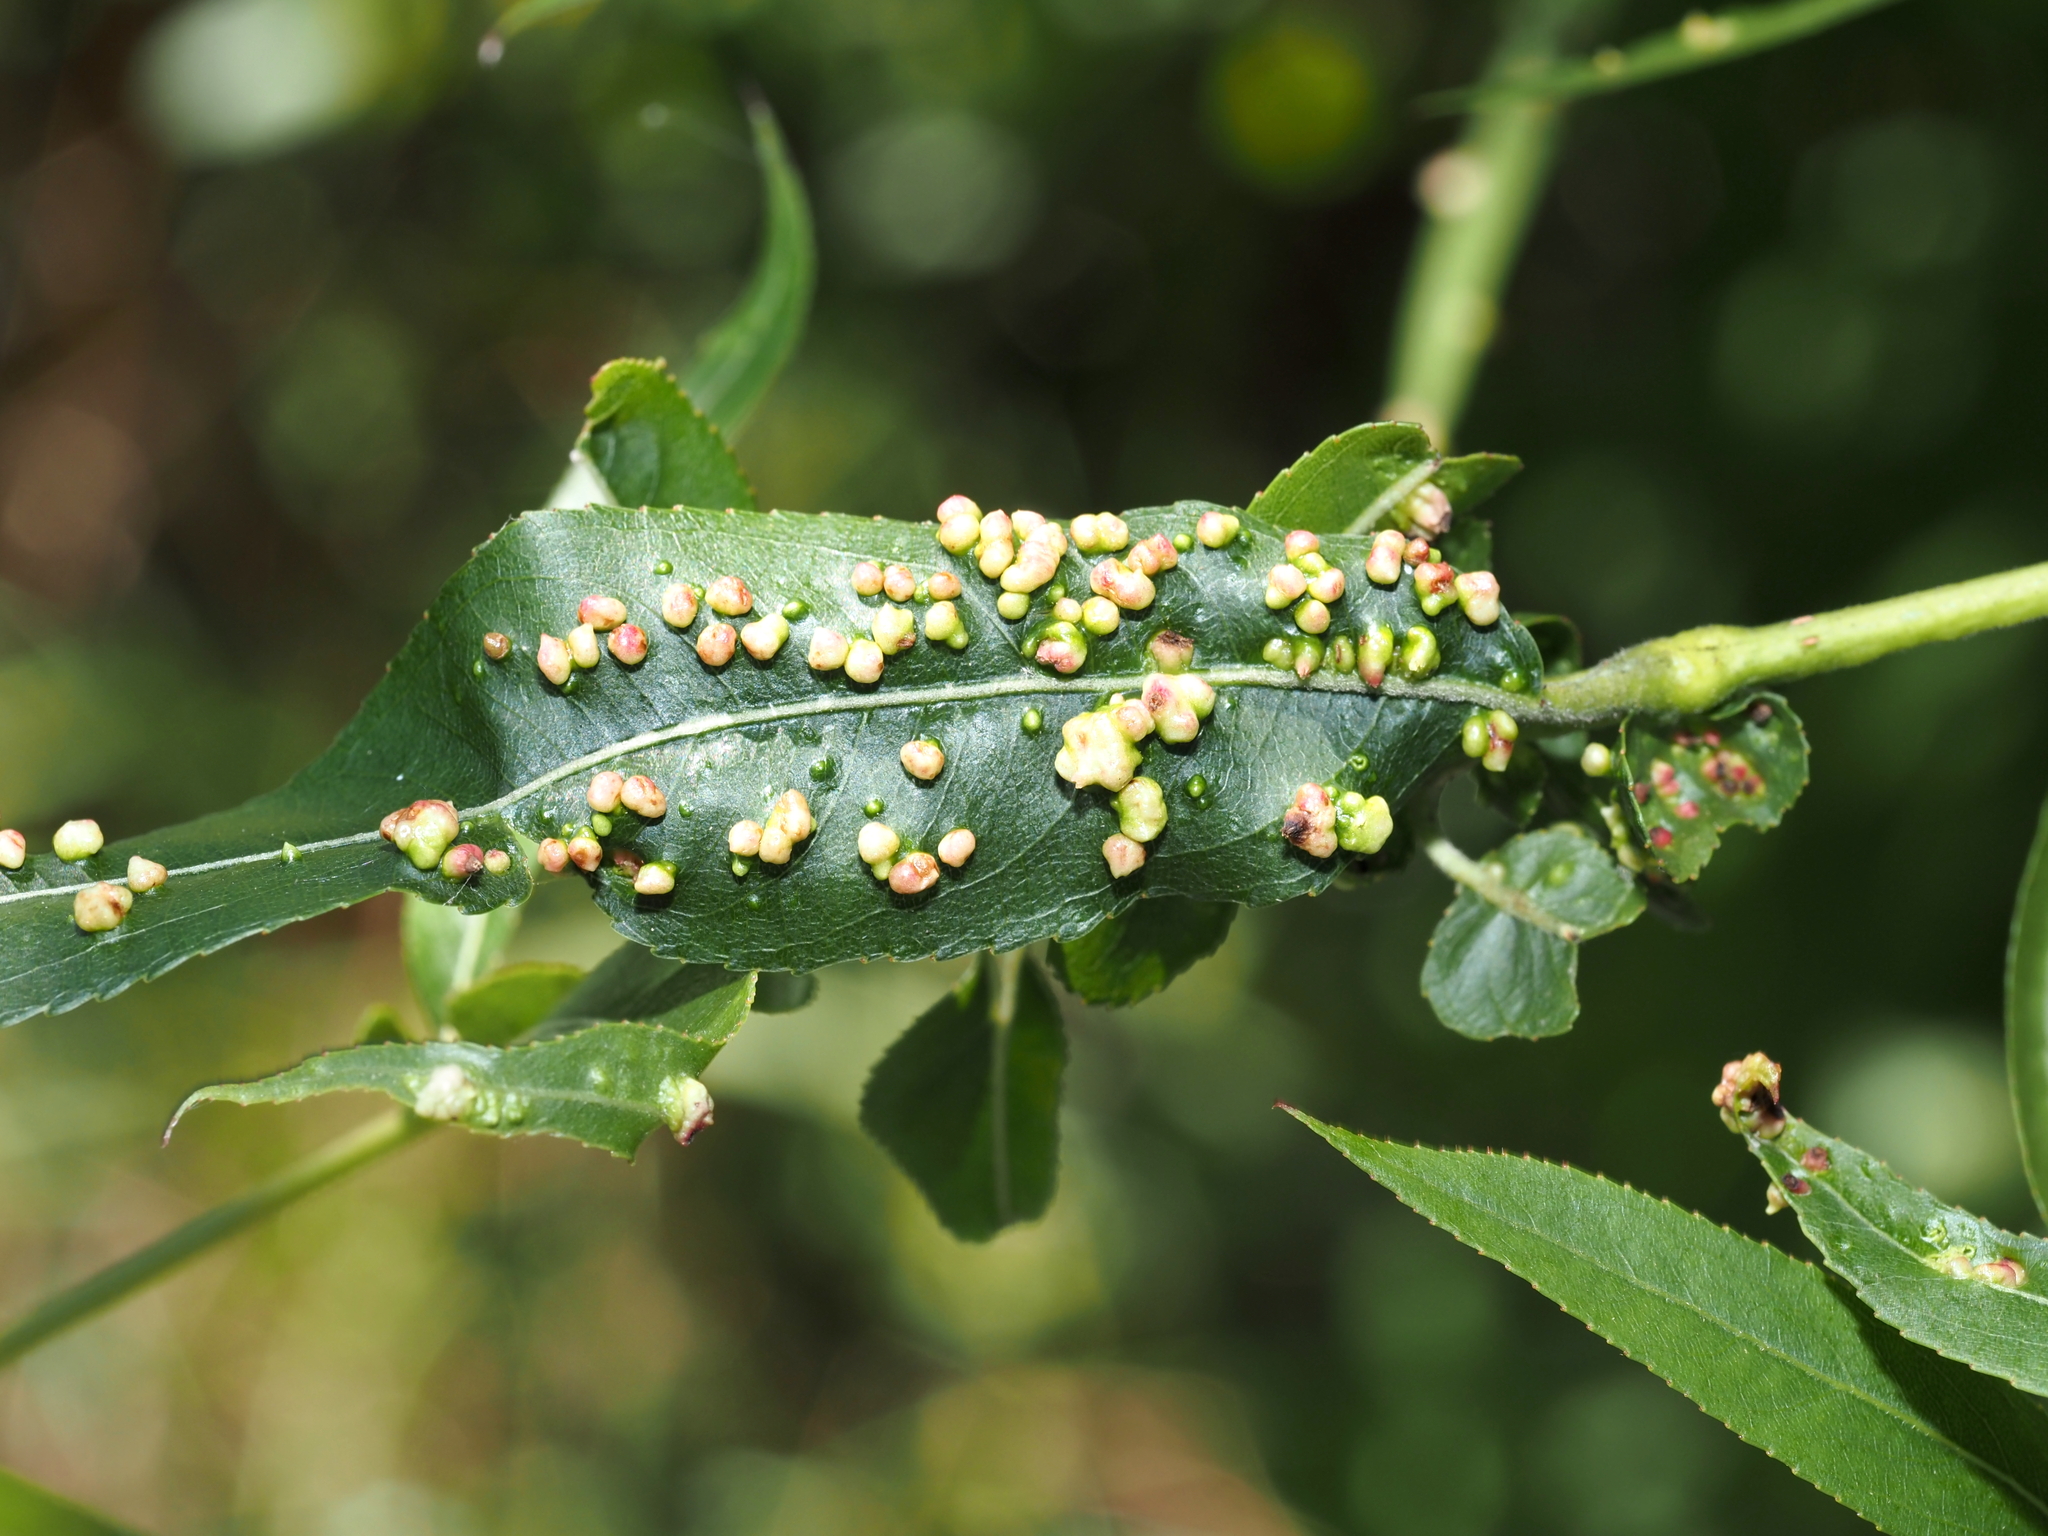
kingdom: Animalia
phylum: Arthropoda
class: Arachnida
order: Trombidiformes
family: Eriophyidae
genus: Aculus
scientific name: Aculus tetanothrix
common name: Willow bead gall mite
